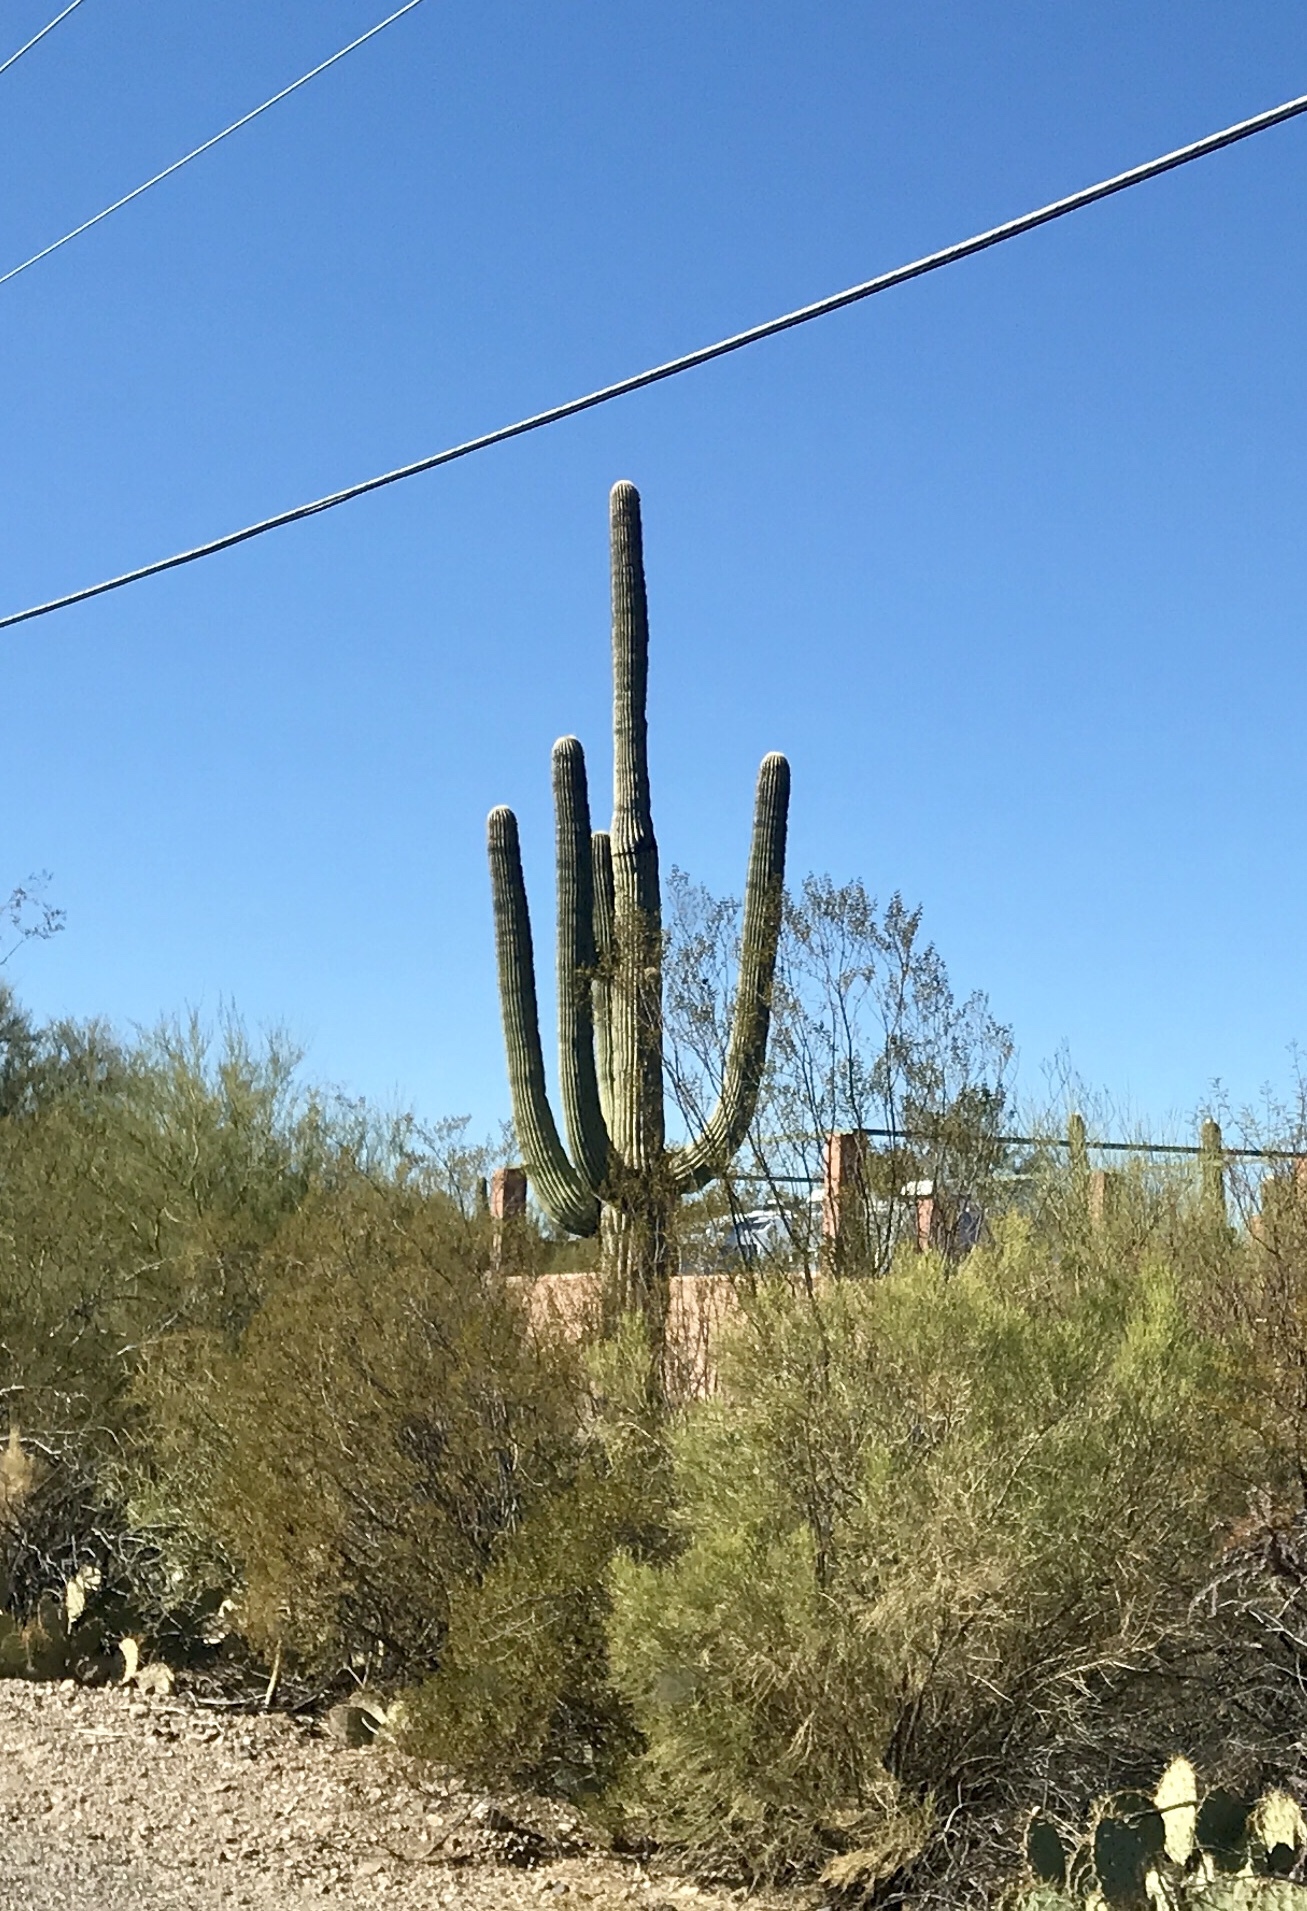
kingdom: Plantae
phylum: Tracheophyta
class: Magnoliopsida
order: Caryophyllales
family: Cactaceae
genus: Carnegiea
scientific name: Carnegiea gigantea
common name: Saguaro
